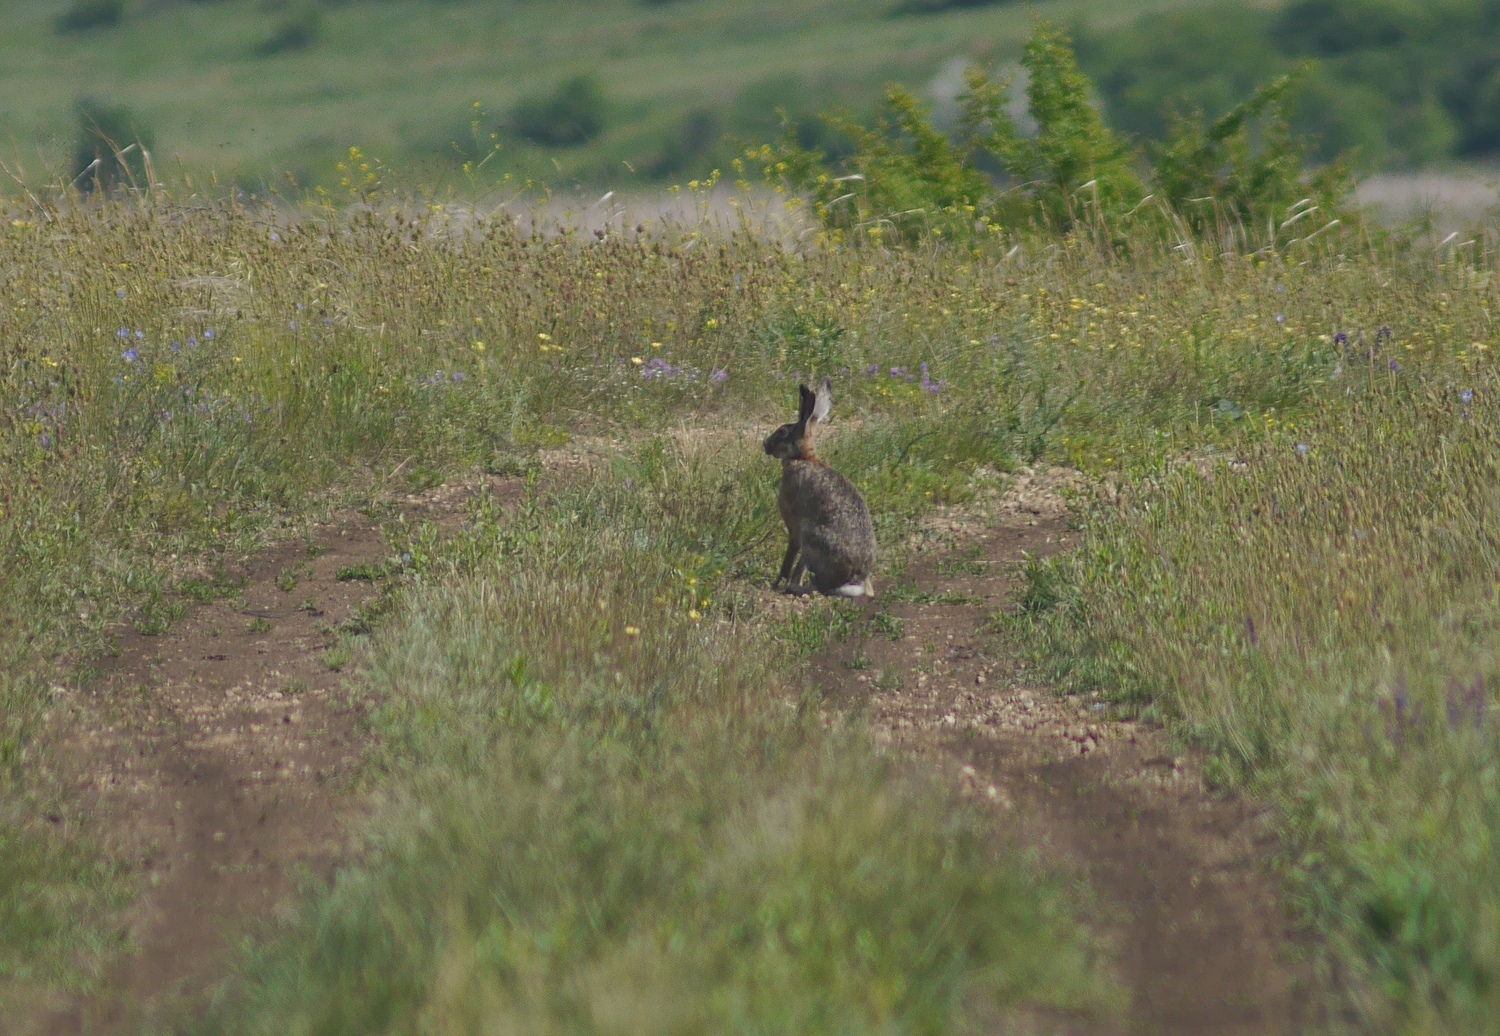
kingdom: Animalia
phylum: Chordata
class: Mammalia
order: Lagomorpha
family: Leporidae
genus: Lepus
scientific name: Lepus europaeus
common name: European hare
